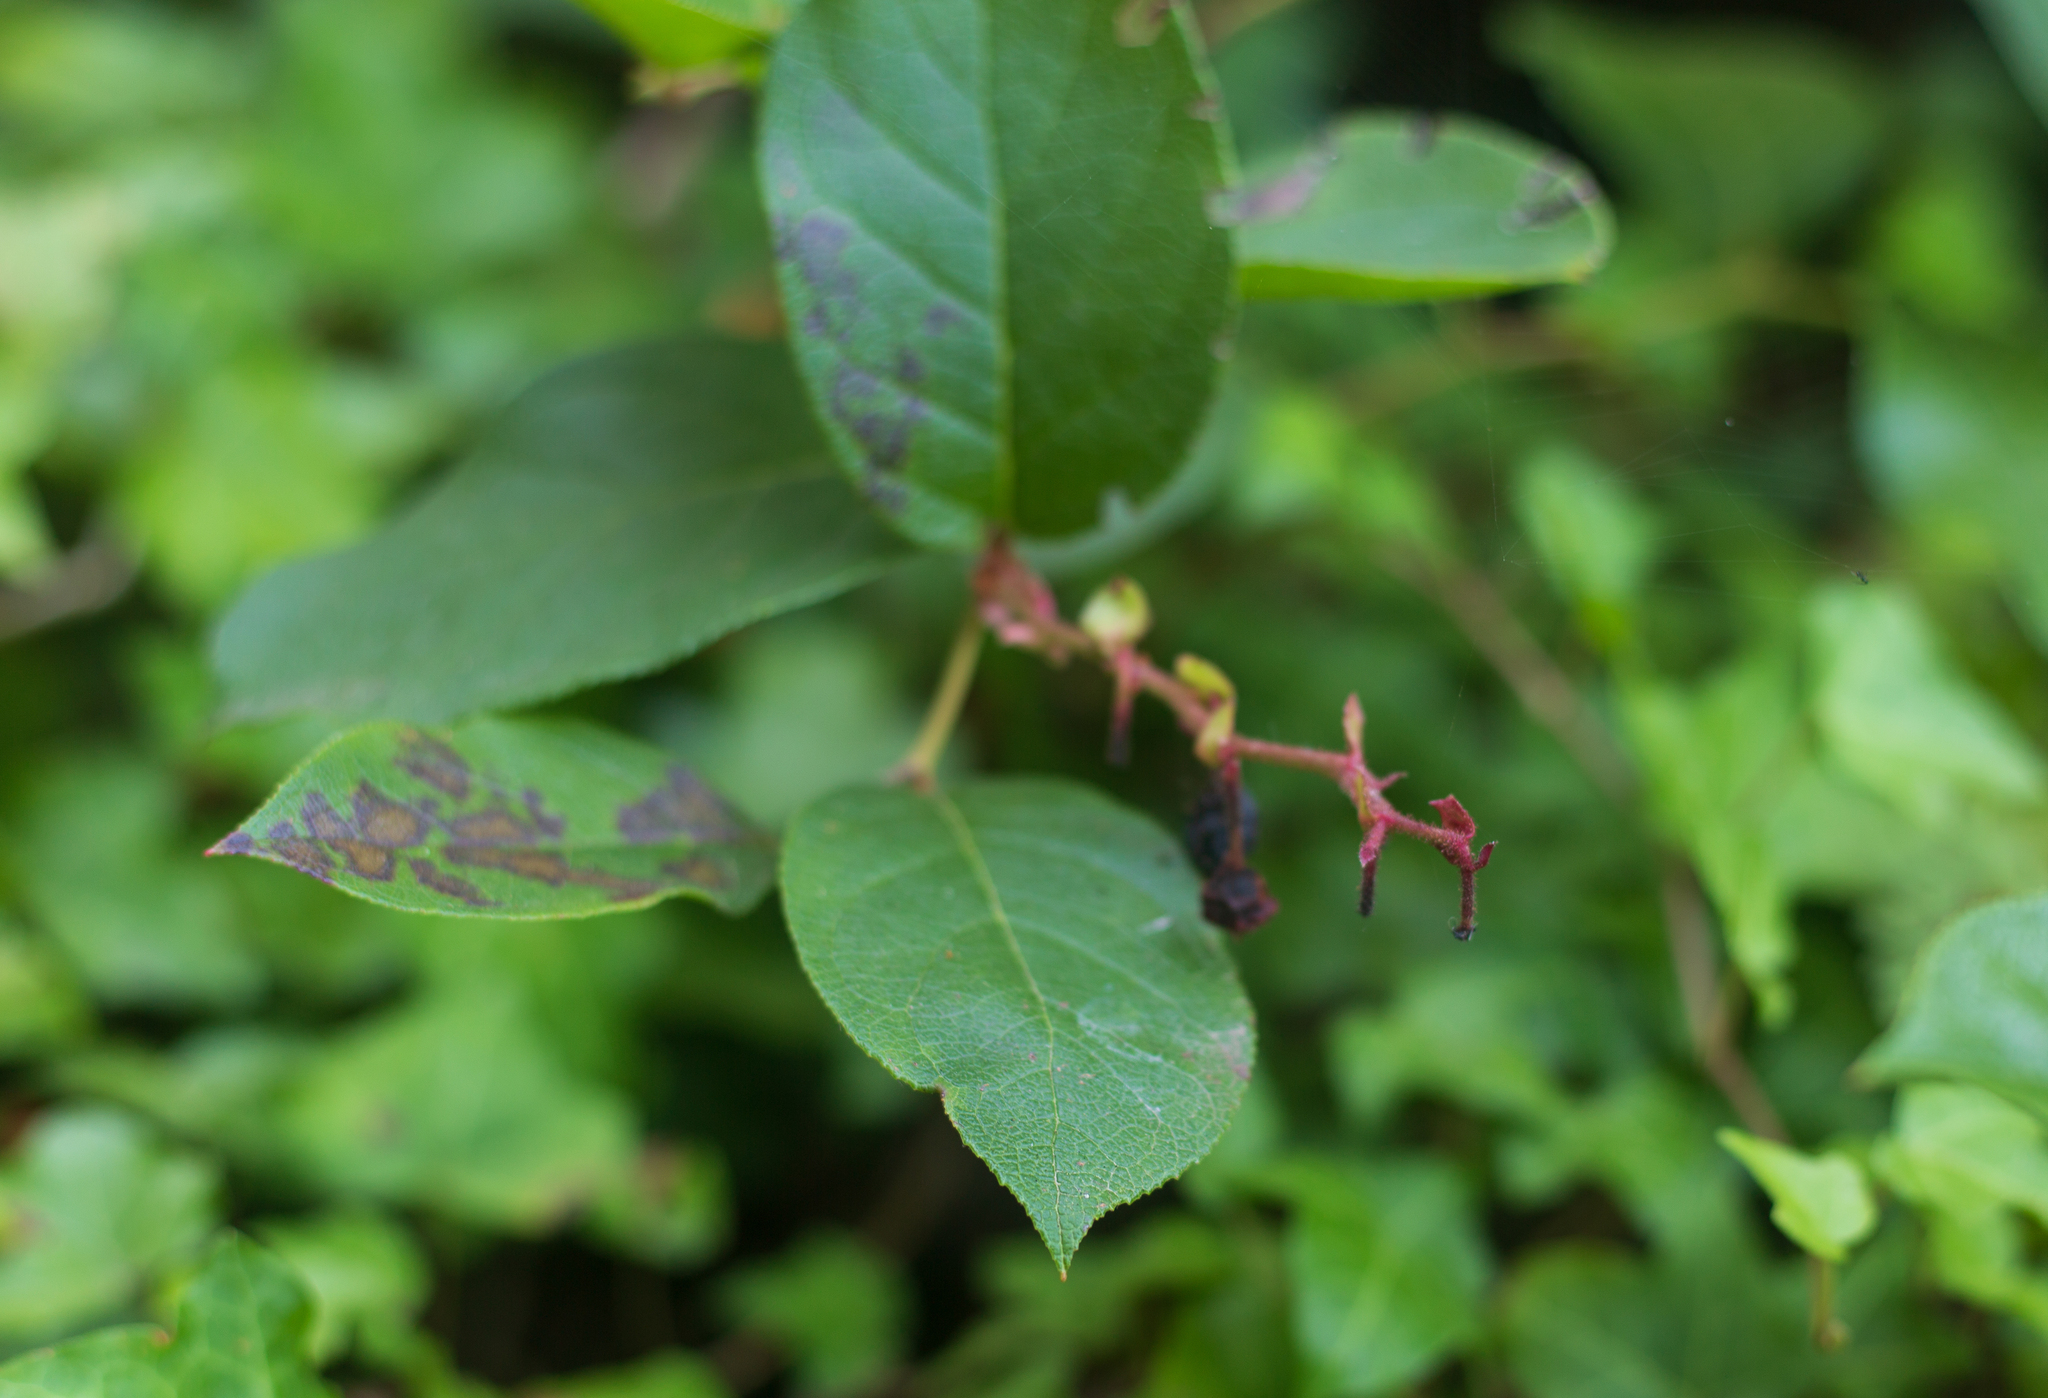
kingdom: Plantae
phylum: Tracheophyta
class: Magnoliopsida
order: Ericales
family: Ericaceae
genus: Gaultheria
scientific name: Gaultheria shallon
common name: Shallon
